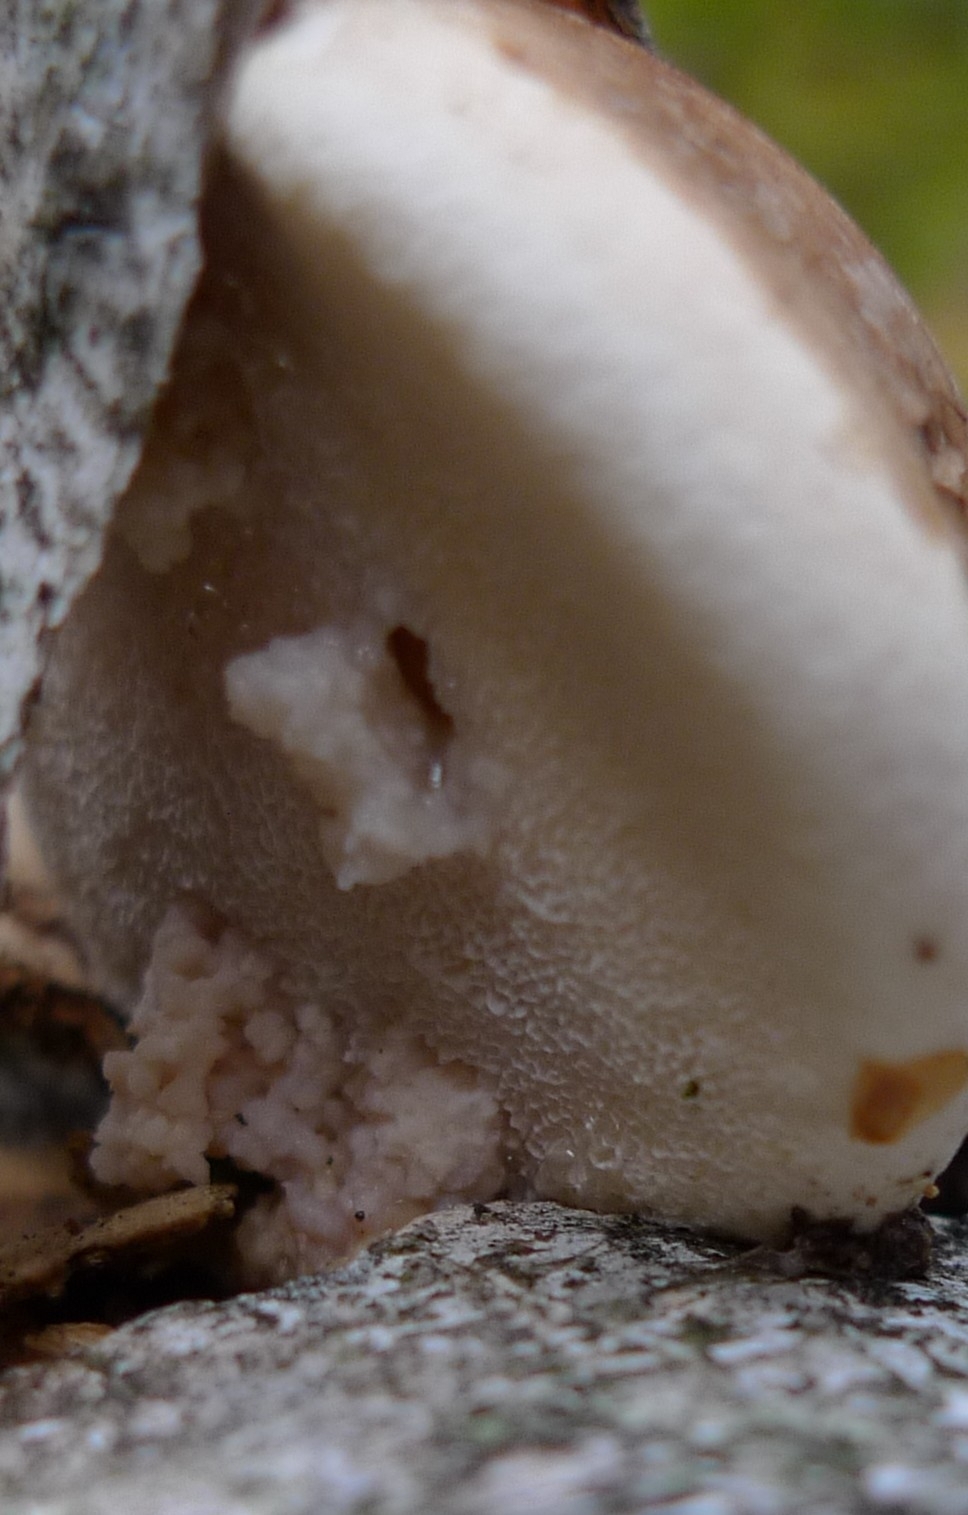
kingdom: Fungi
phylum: Basidiomycota
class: Agaricomycetes
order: Polyporales
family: Fomitopsidaceae
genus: Fomitopsis
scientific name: Fomitopsis betulina
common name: Birch polypore
